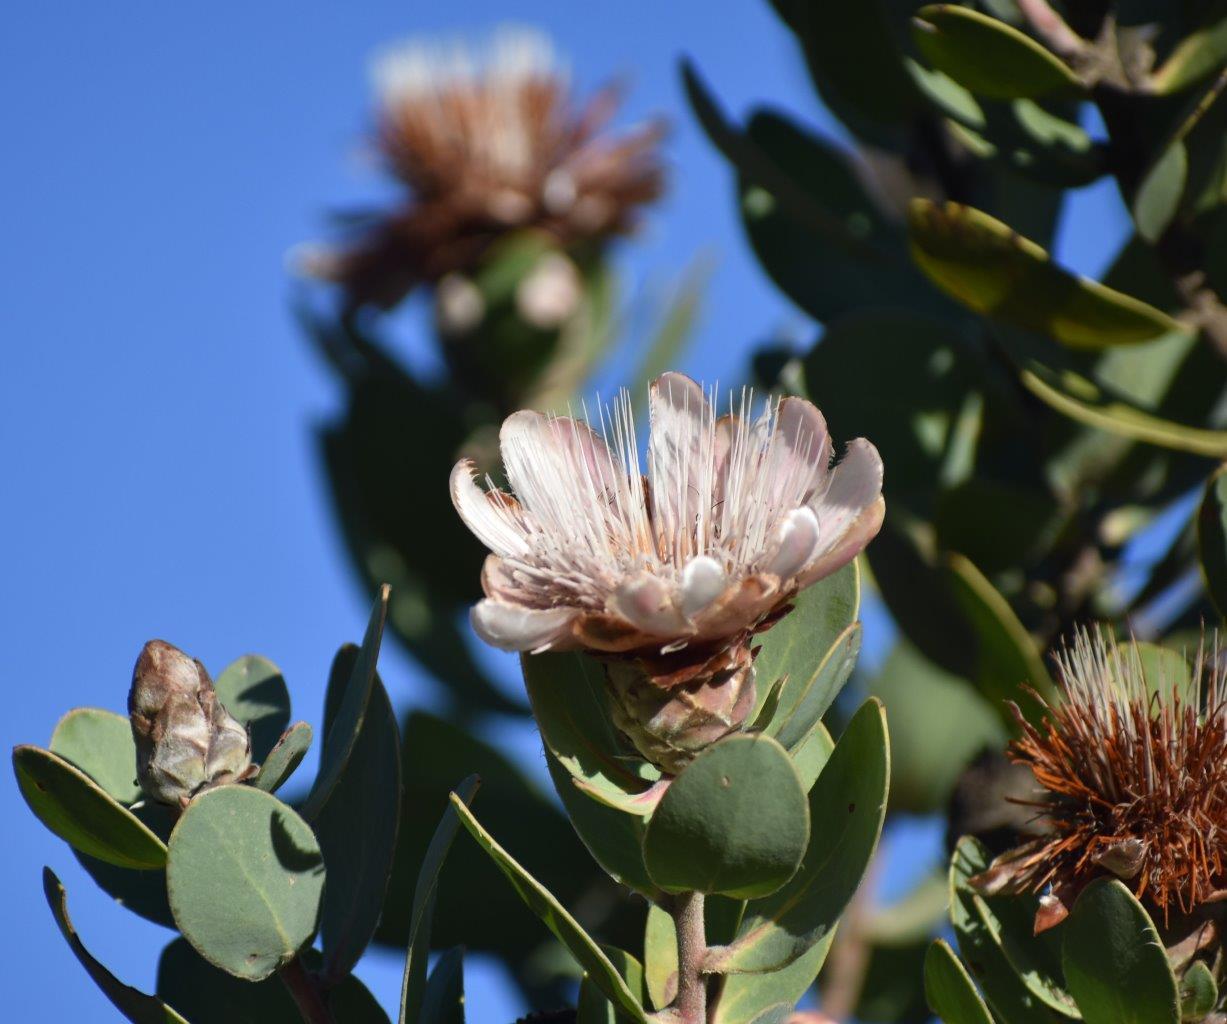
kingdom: Plantae
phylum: Tracheophyta
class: Magnoliopsida
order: Proteales
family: Proteaceae
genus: Protea
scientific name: Protea punctata
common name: Water sugarbush
